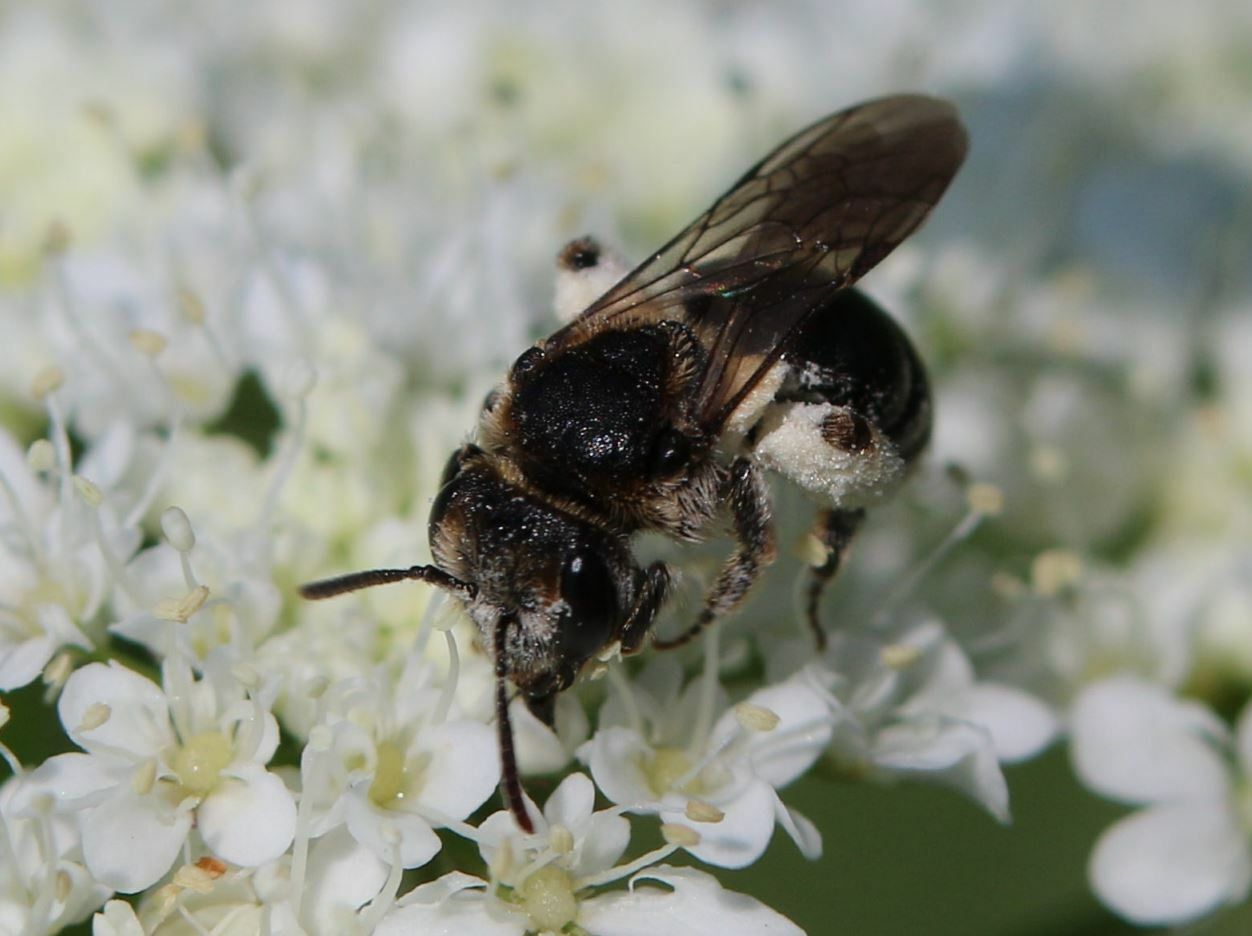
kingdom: Animalia
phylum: Arthropoda
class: Insecta
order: Hymenoptera
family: Andrenidae
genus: Andrena
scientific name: Andrena colletiformis
